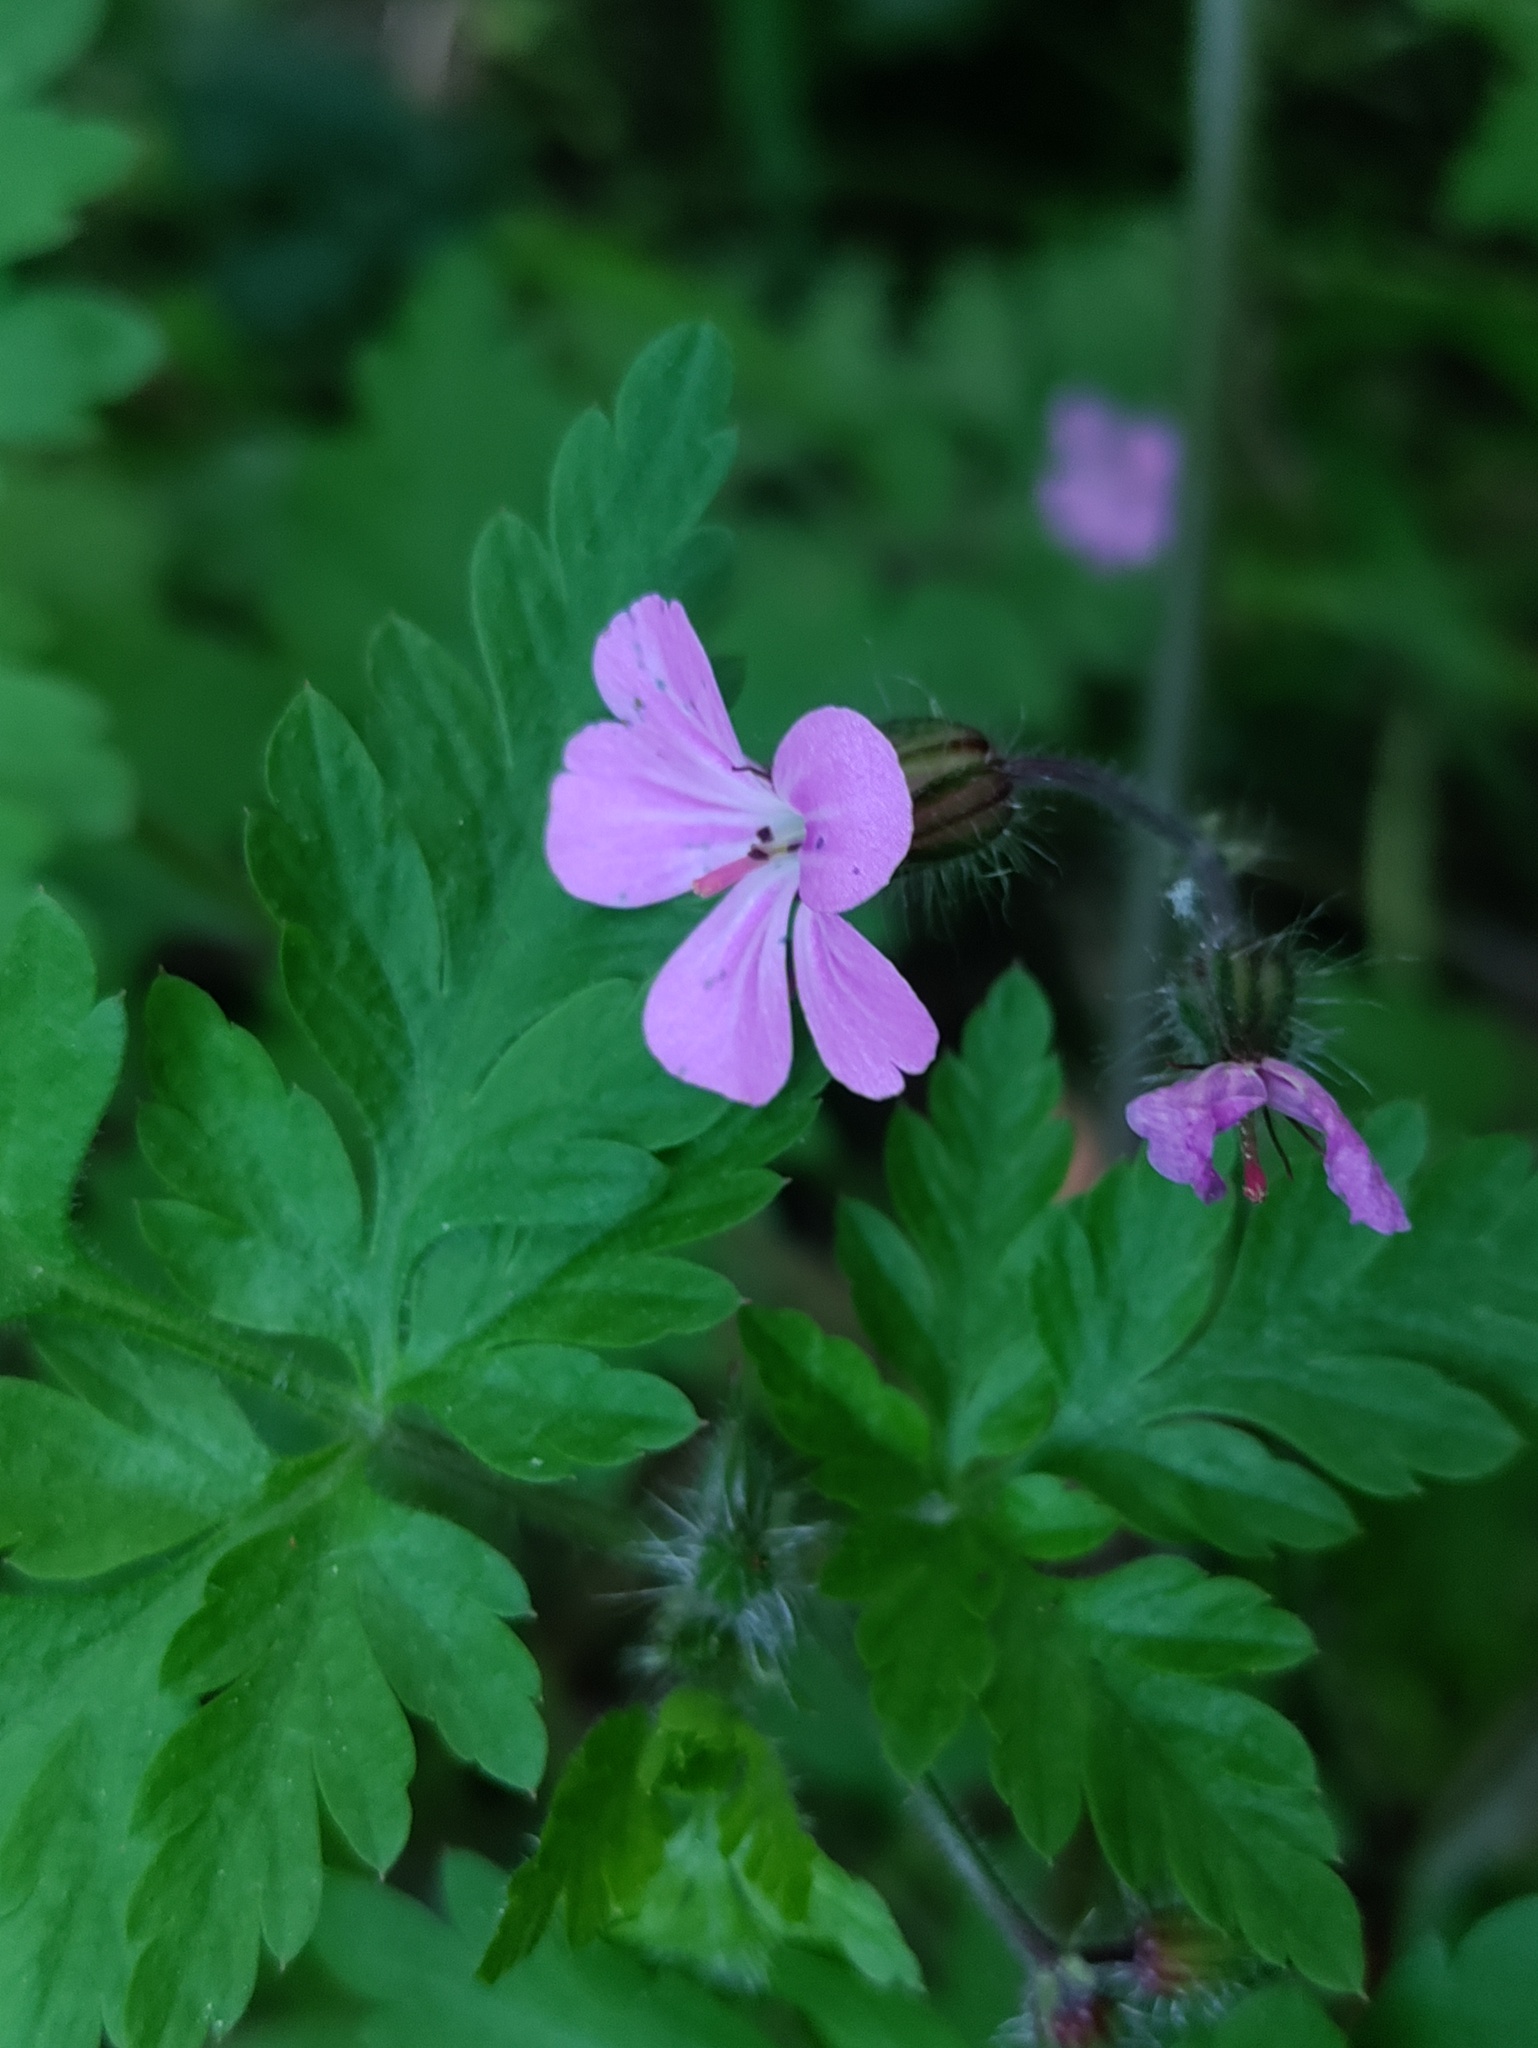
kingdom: Plantae
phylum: Tracheophyta
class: Magnoliopsida
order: Geraniales
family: Geraniaceae
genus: Geranium
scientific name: Geranium robertianum
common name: Herb-robert
